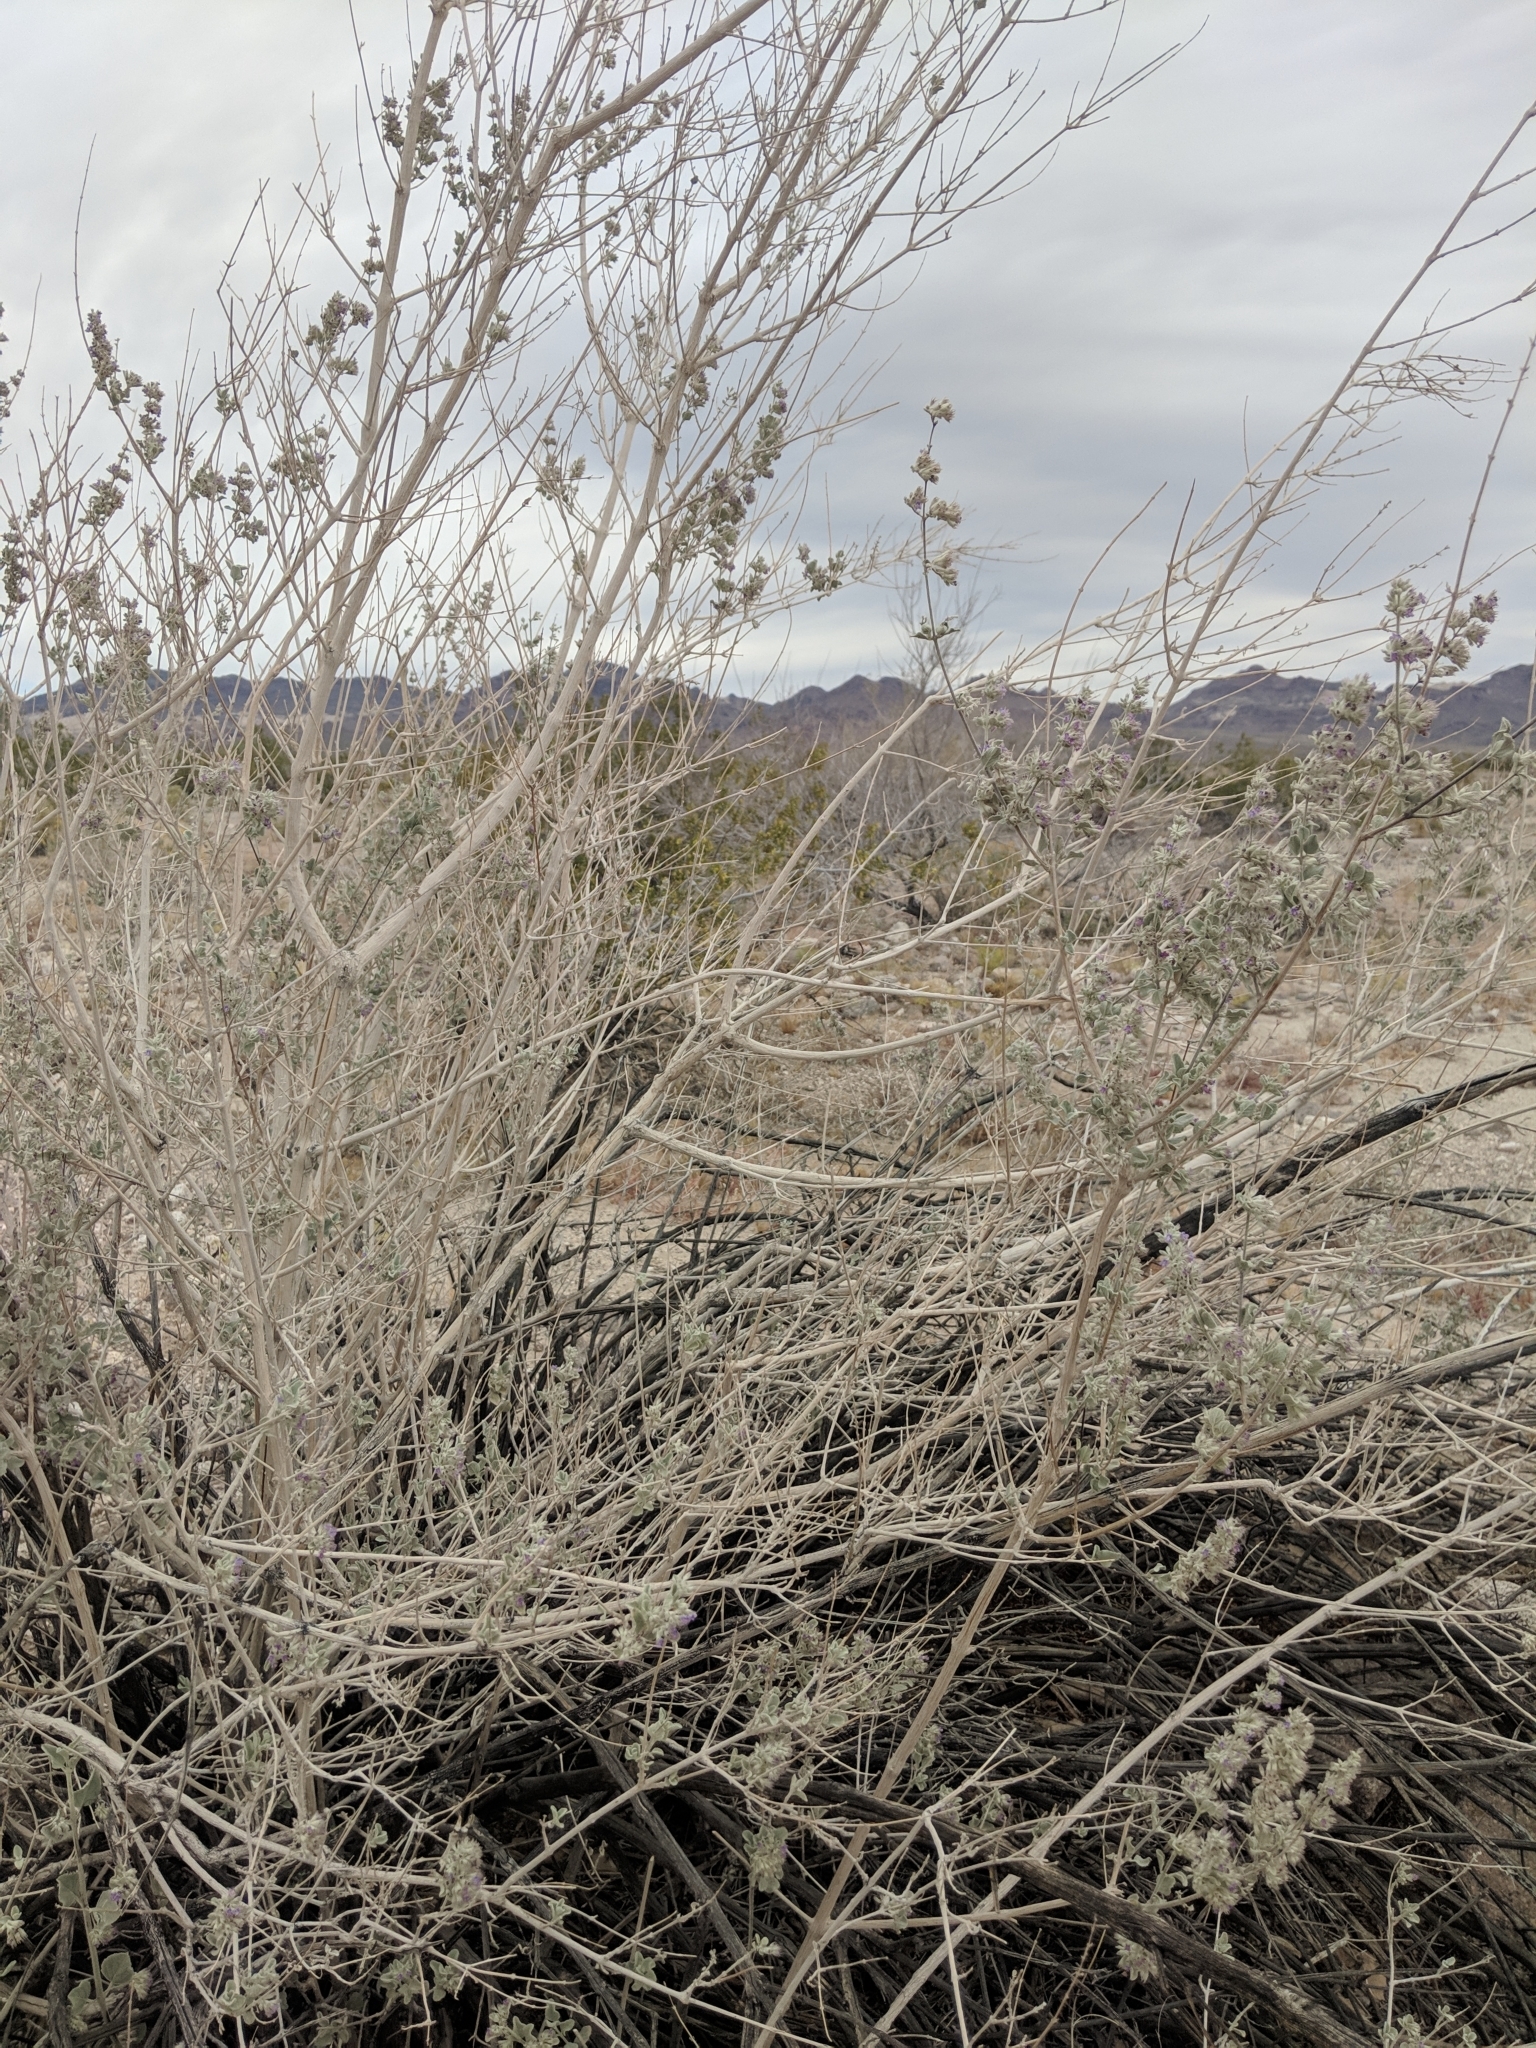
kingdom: Plantae
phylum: Tracheophyta
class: Magnoliopsida
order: Lamiales
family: Lamiaceae
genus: Condea
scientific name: Condea emoryi
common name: Chia
